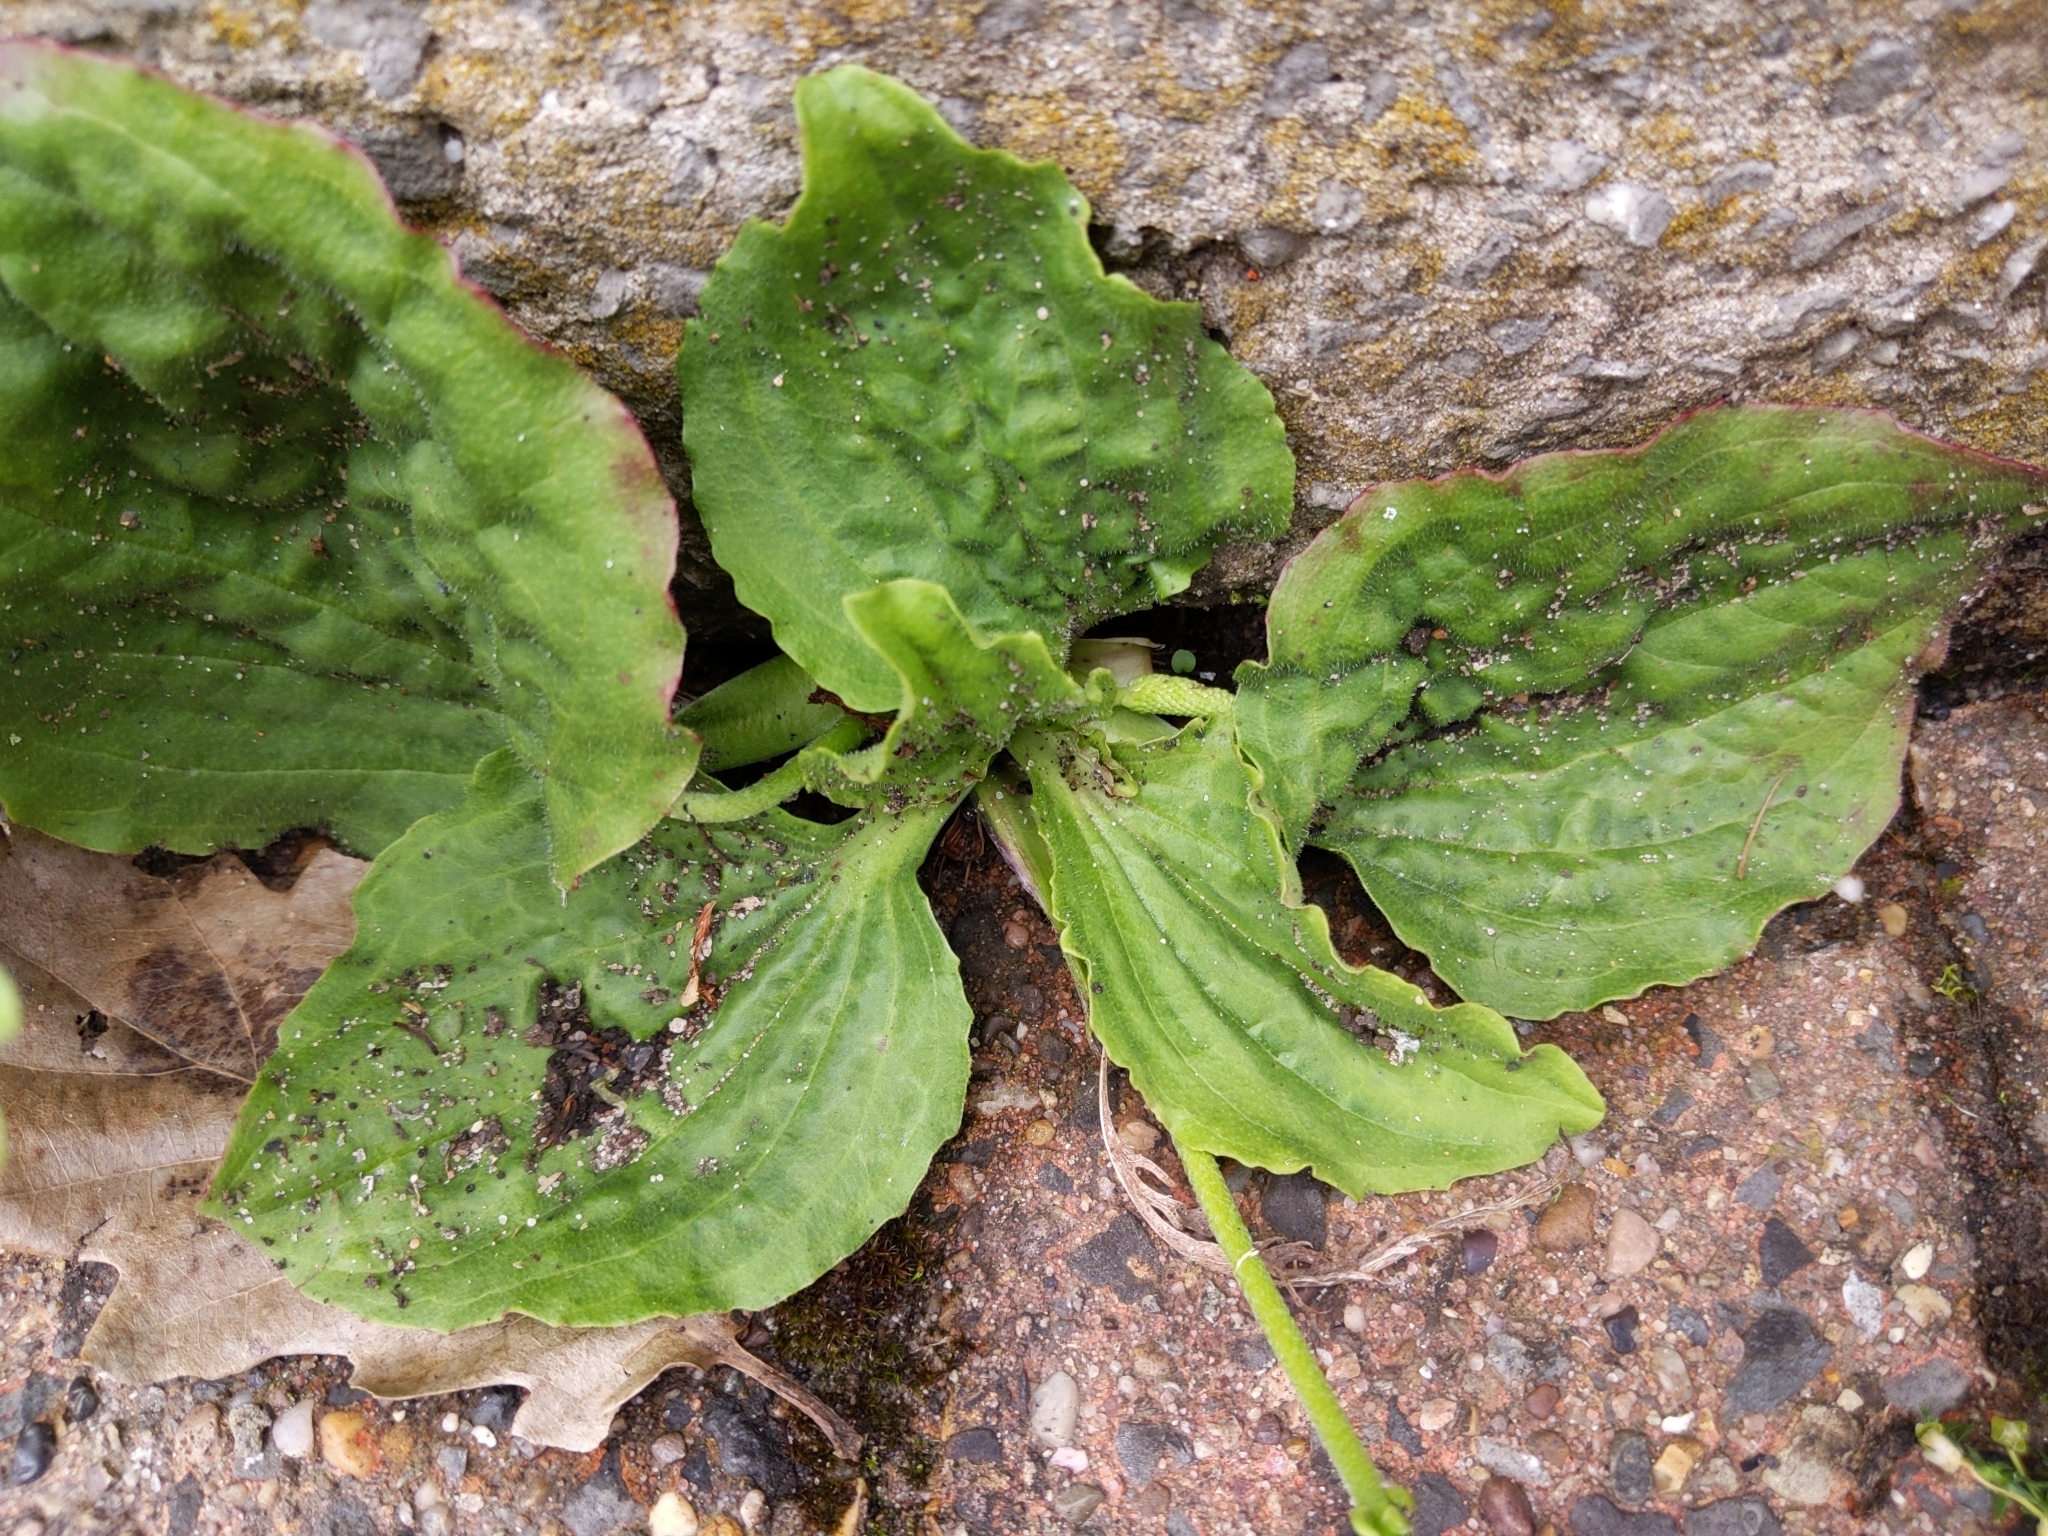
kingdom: Plantae
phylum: Tracheophyta
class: Magnoliopsida
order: Lamiales
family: Plantaginaceae
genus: Plantago
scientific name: Plantago major
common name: Common plantain
